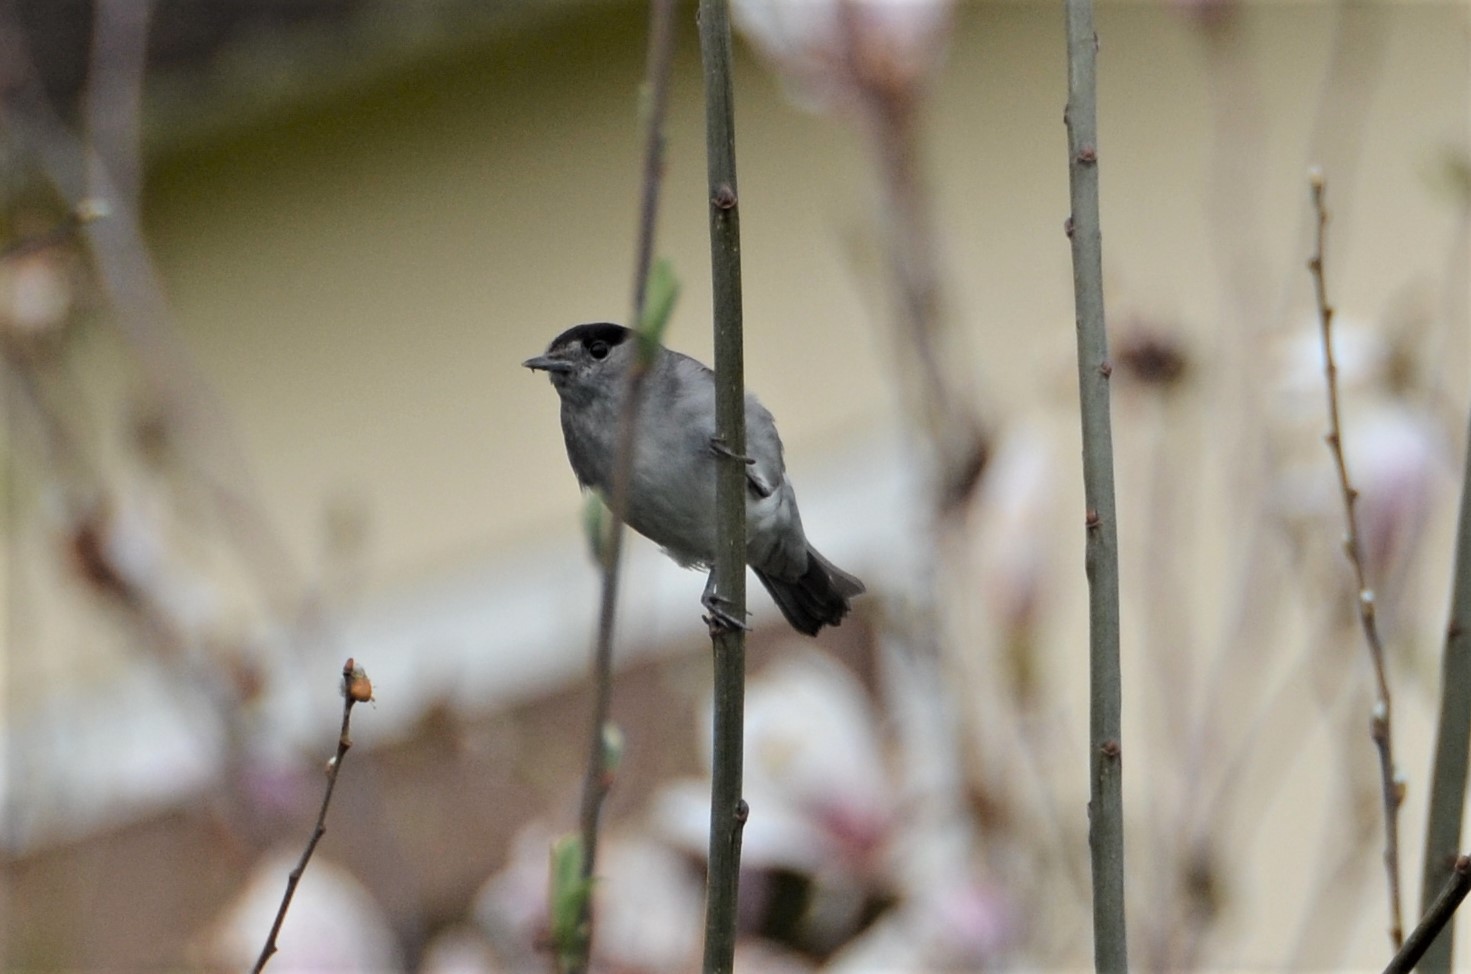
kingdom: Animalia
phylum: Chordata
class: Aves
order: Passeriformes
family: Sylviidae
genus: Sylvia
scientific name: Sylvia atricapilla
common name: Eurasian blackcap
